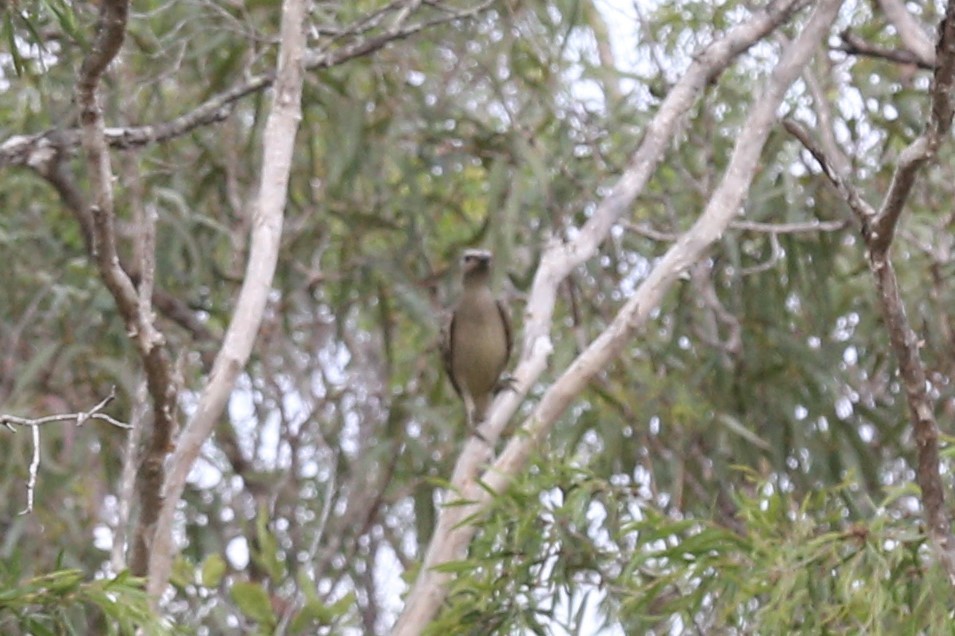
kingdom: Animalia
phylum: Chordata
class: Aves
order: Passeriformes
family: Ptilonorhynchidae
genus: Chlamydera
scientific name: Chlamydera nuchalis
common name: Great bowerbird
